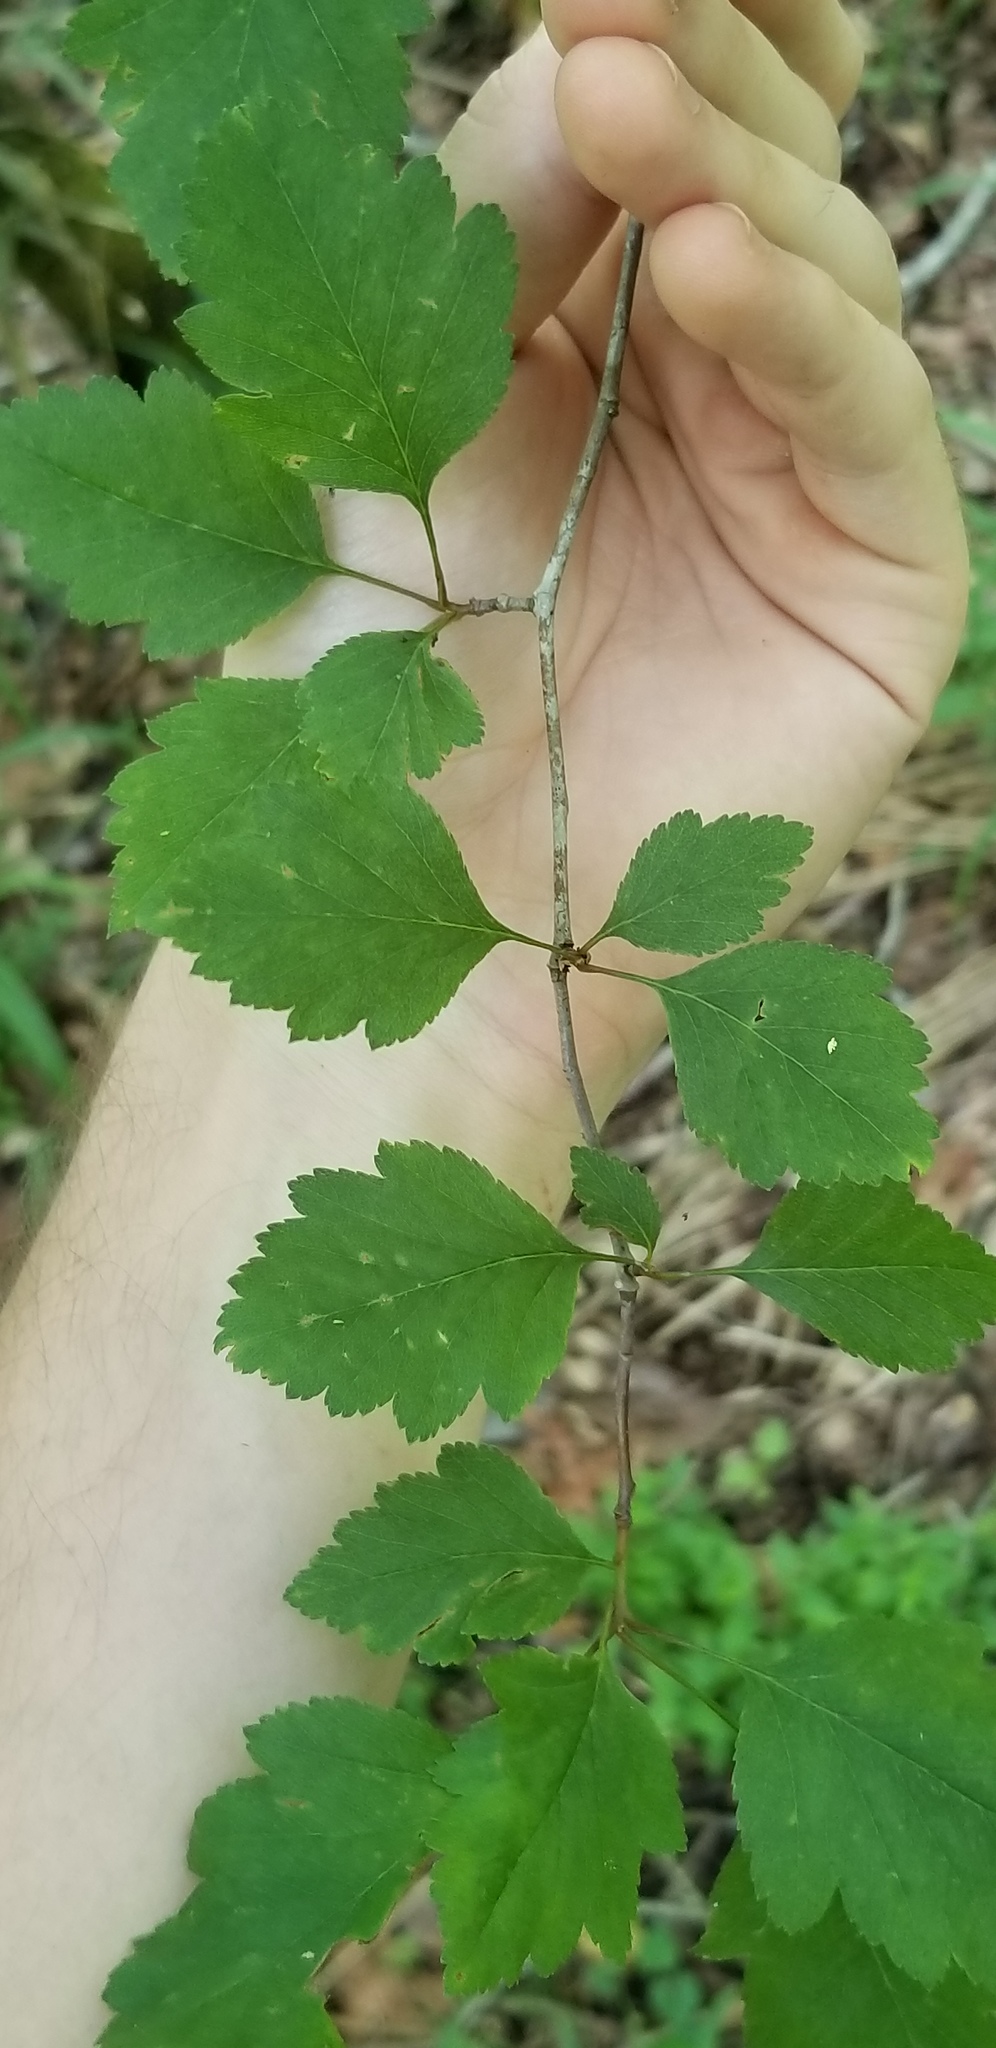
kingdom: Plantae
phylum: Tracheophyta
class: Magnoliopsida
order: Rosales
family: Rosaceae
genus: Crataegus
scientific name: Crataegus pulcherrima
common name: Beautiful hawthorn
